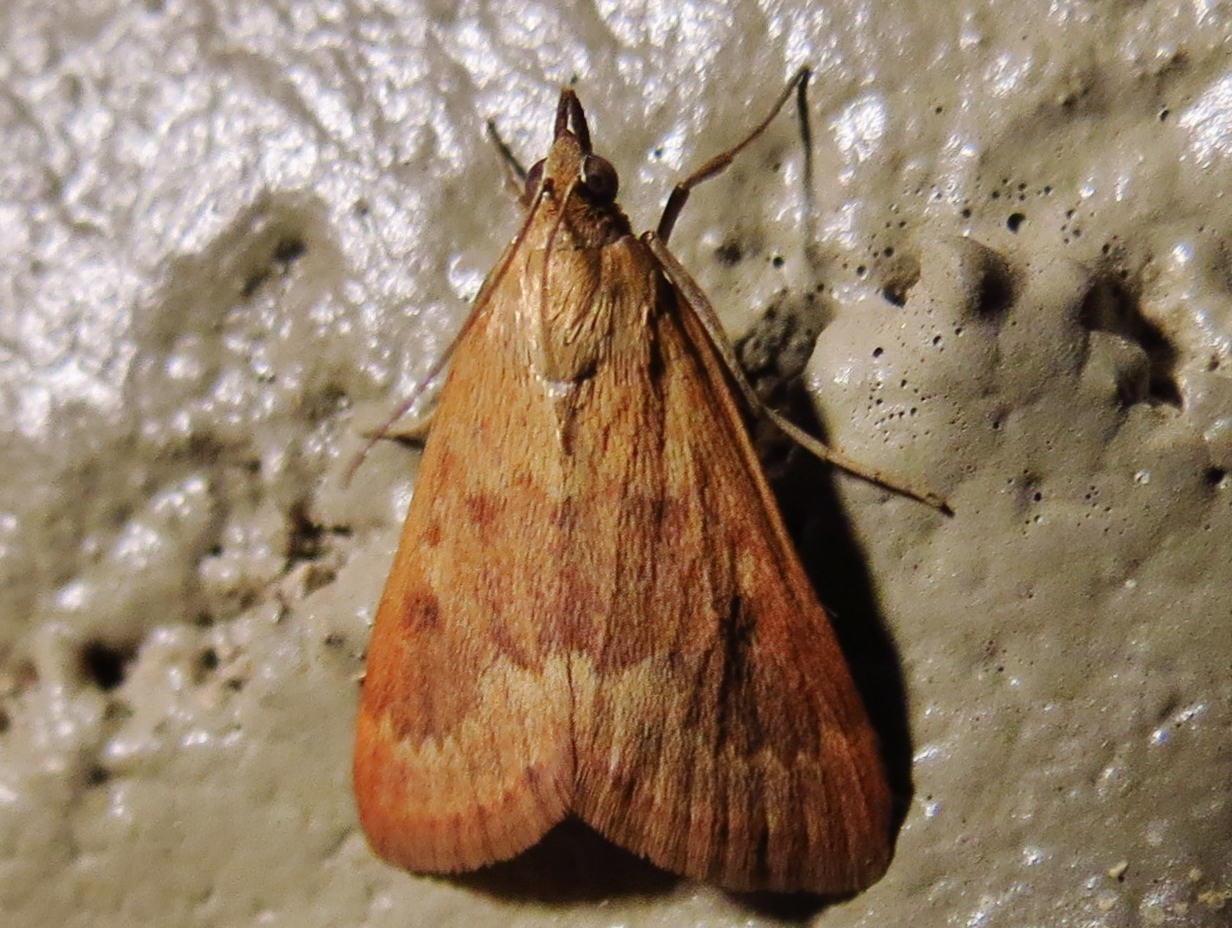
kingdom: Animalia
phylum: Arthropoda
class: Insecta
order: Lepidoptera
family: Crambidae
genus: Achyra
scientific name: Achyra rantalis
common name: Garden webworm
